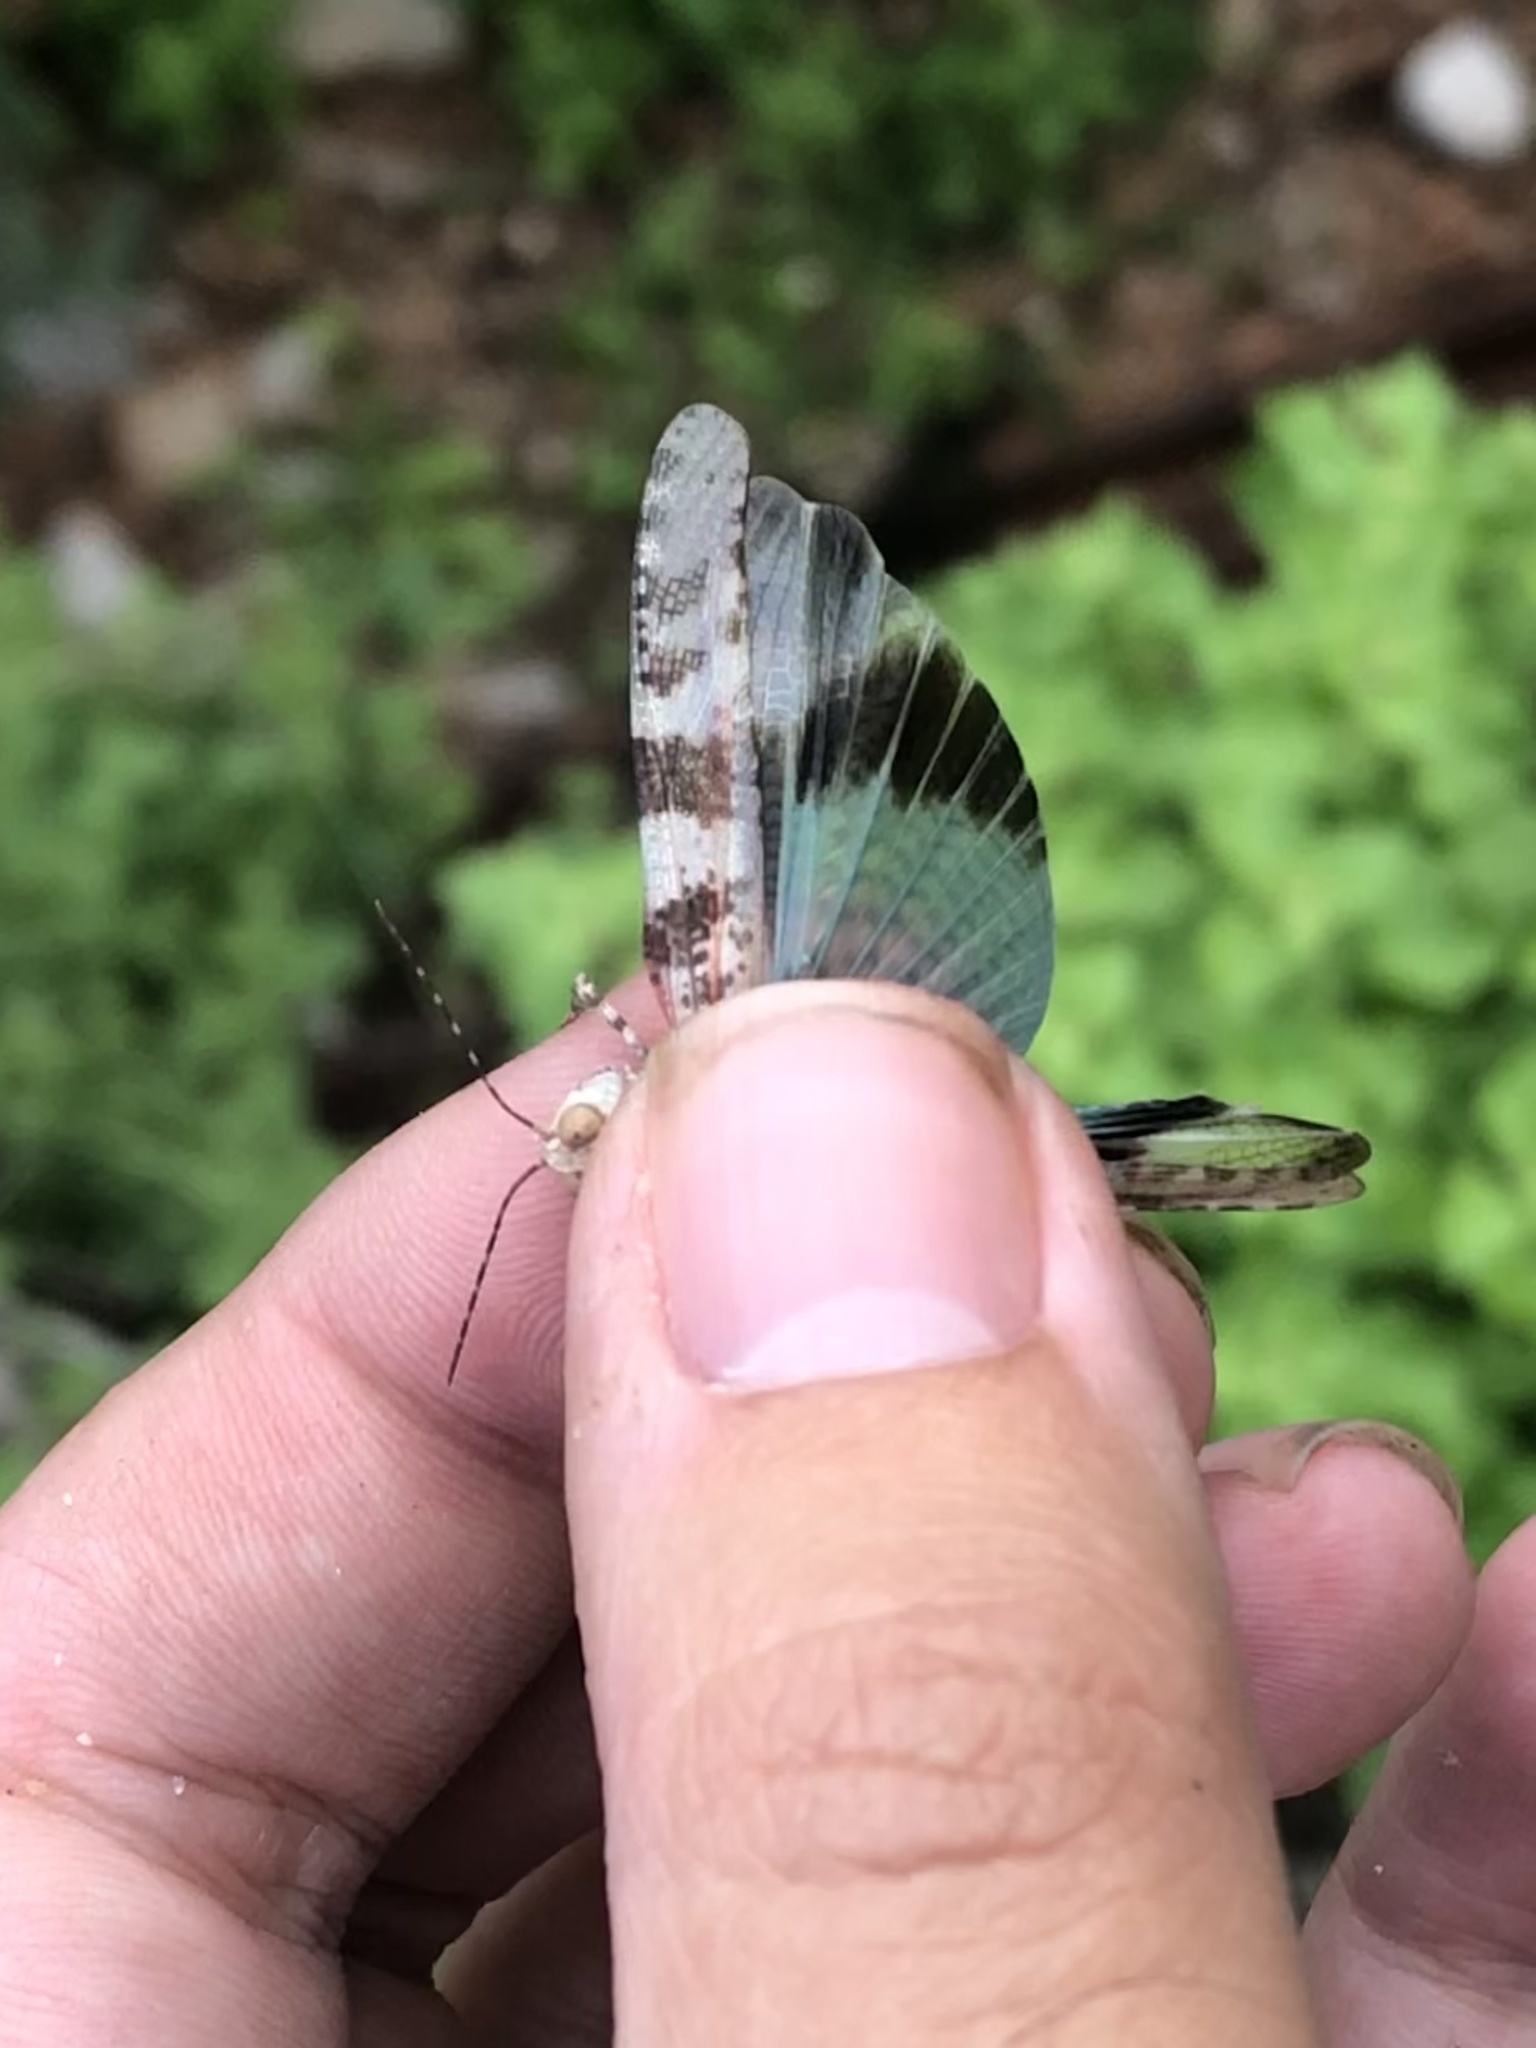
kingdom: Animalia
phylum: Arthropoda
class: Insecta
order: Orthoptera
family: Acrididae
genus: Trimerotropis
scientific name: Trimerotropis cyaneipennis
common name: Blue-winged grasshopper
